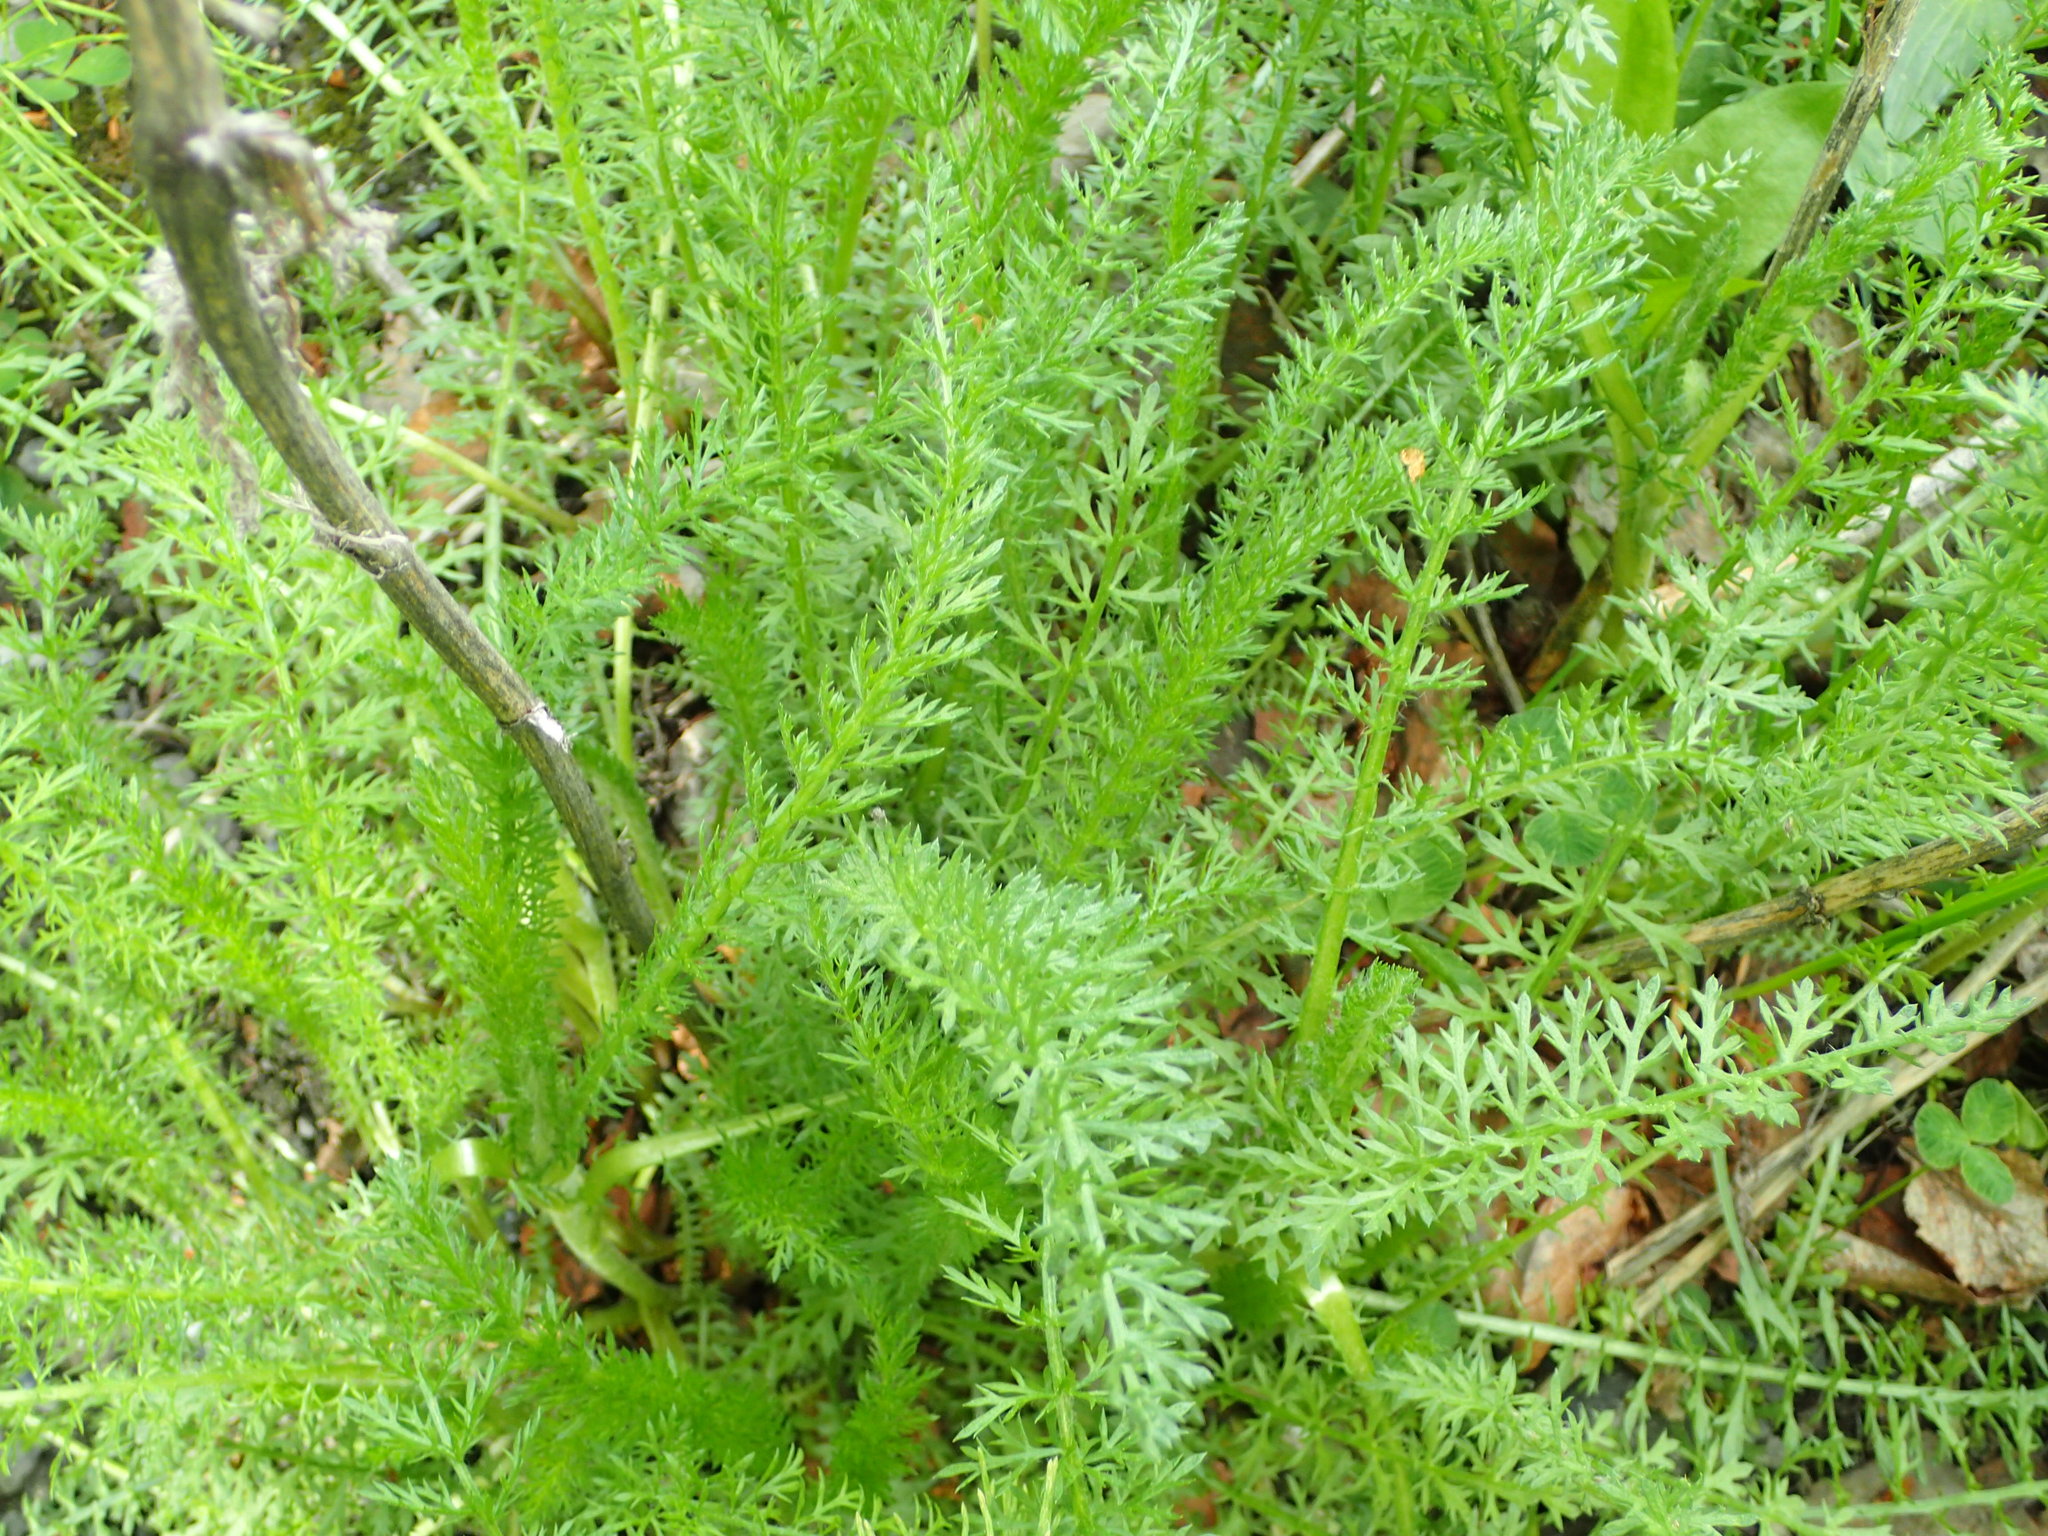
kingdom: Plantae
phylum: Tracheophyta
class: Magnoliopsida
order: Asterales
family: Asteraceae
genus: Achillea
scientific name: Achillea millefolium
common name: Yarrow
